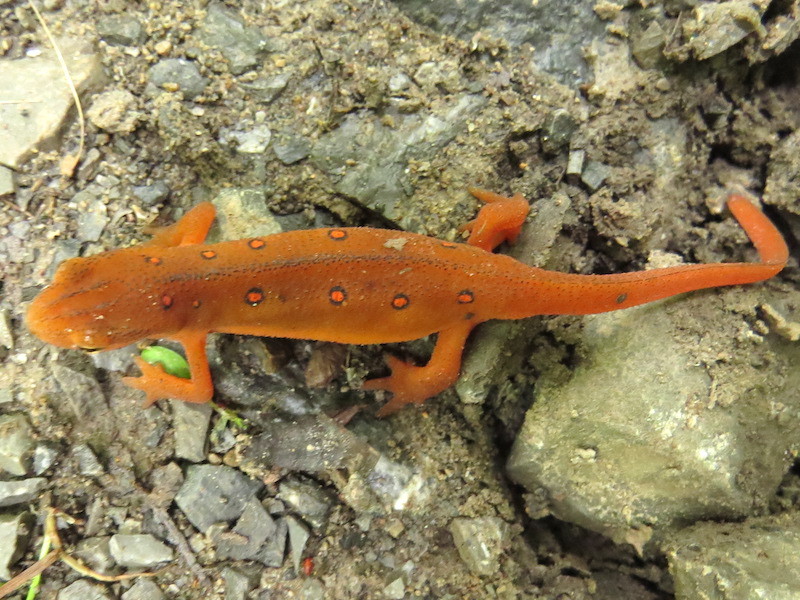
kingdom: Animalia
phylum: Chordata
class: Amphibia
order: Caudata
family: Salamandridae
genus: Notophthalmus
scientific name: Notophthalmus viridescens
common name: Eastern newt
